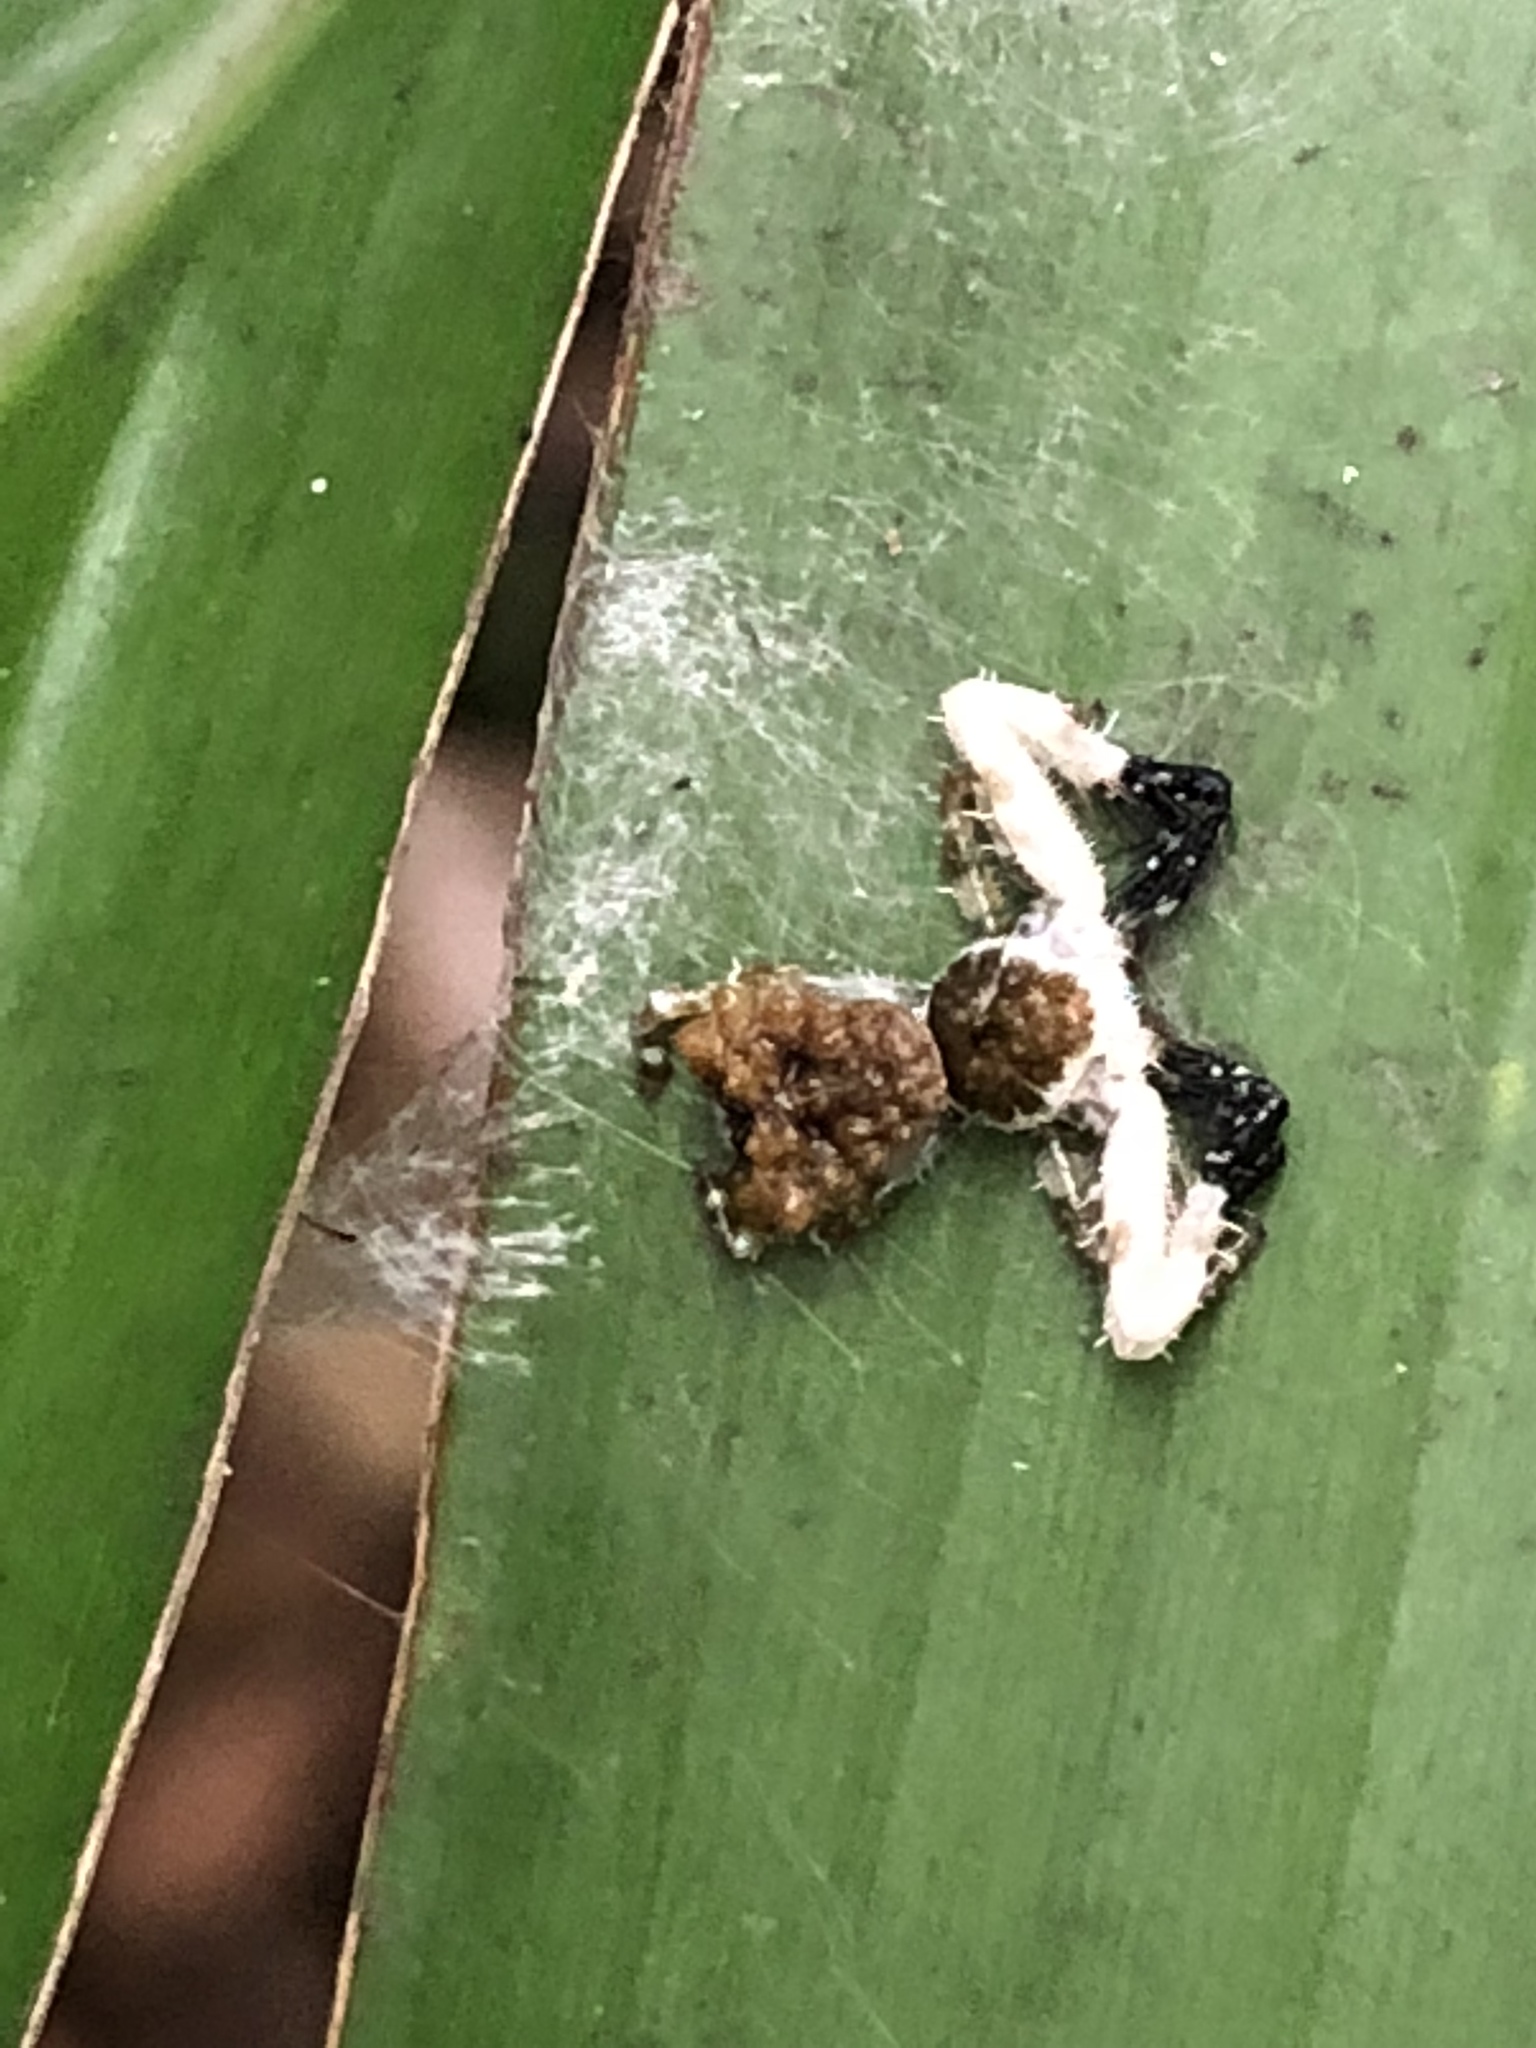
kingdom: Animalia
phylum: Arthropoda
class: Arachnida
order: Araneae
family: Thomisidae
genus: Phrynarachne
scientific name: Phrynarachne ceylonica
